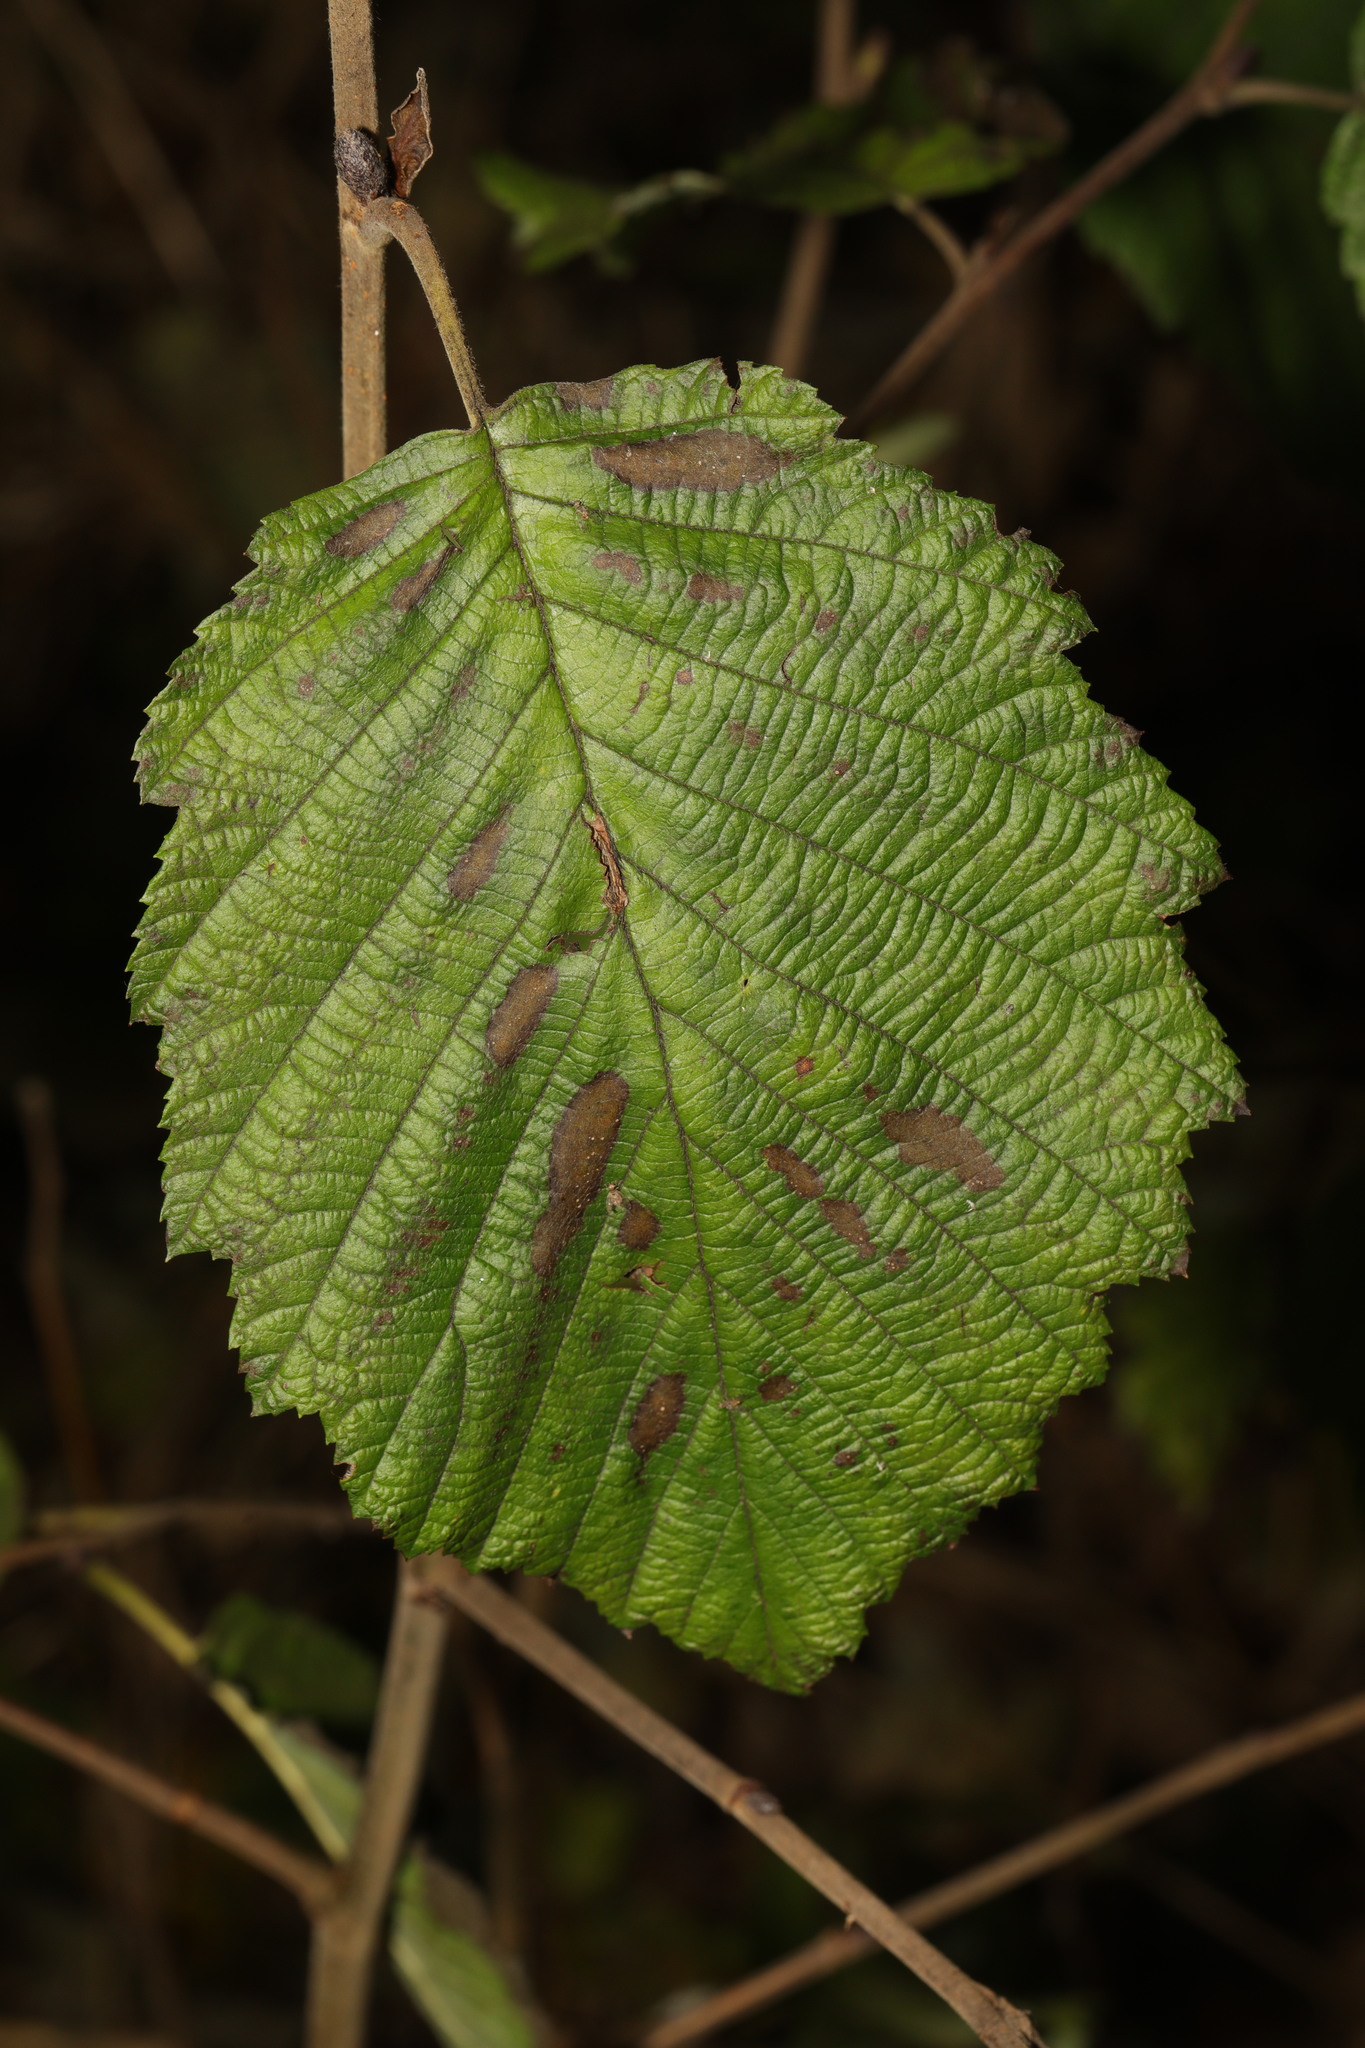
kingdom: Plantae
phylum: Tracheophyta
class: Magnoliopsida
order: Fagales
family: Betulaceae
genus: Alnus
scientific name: Alnus incana
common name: Grey alder
